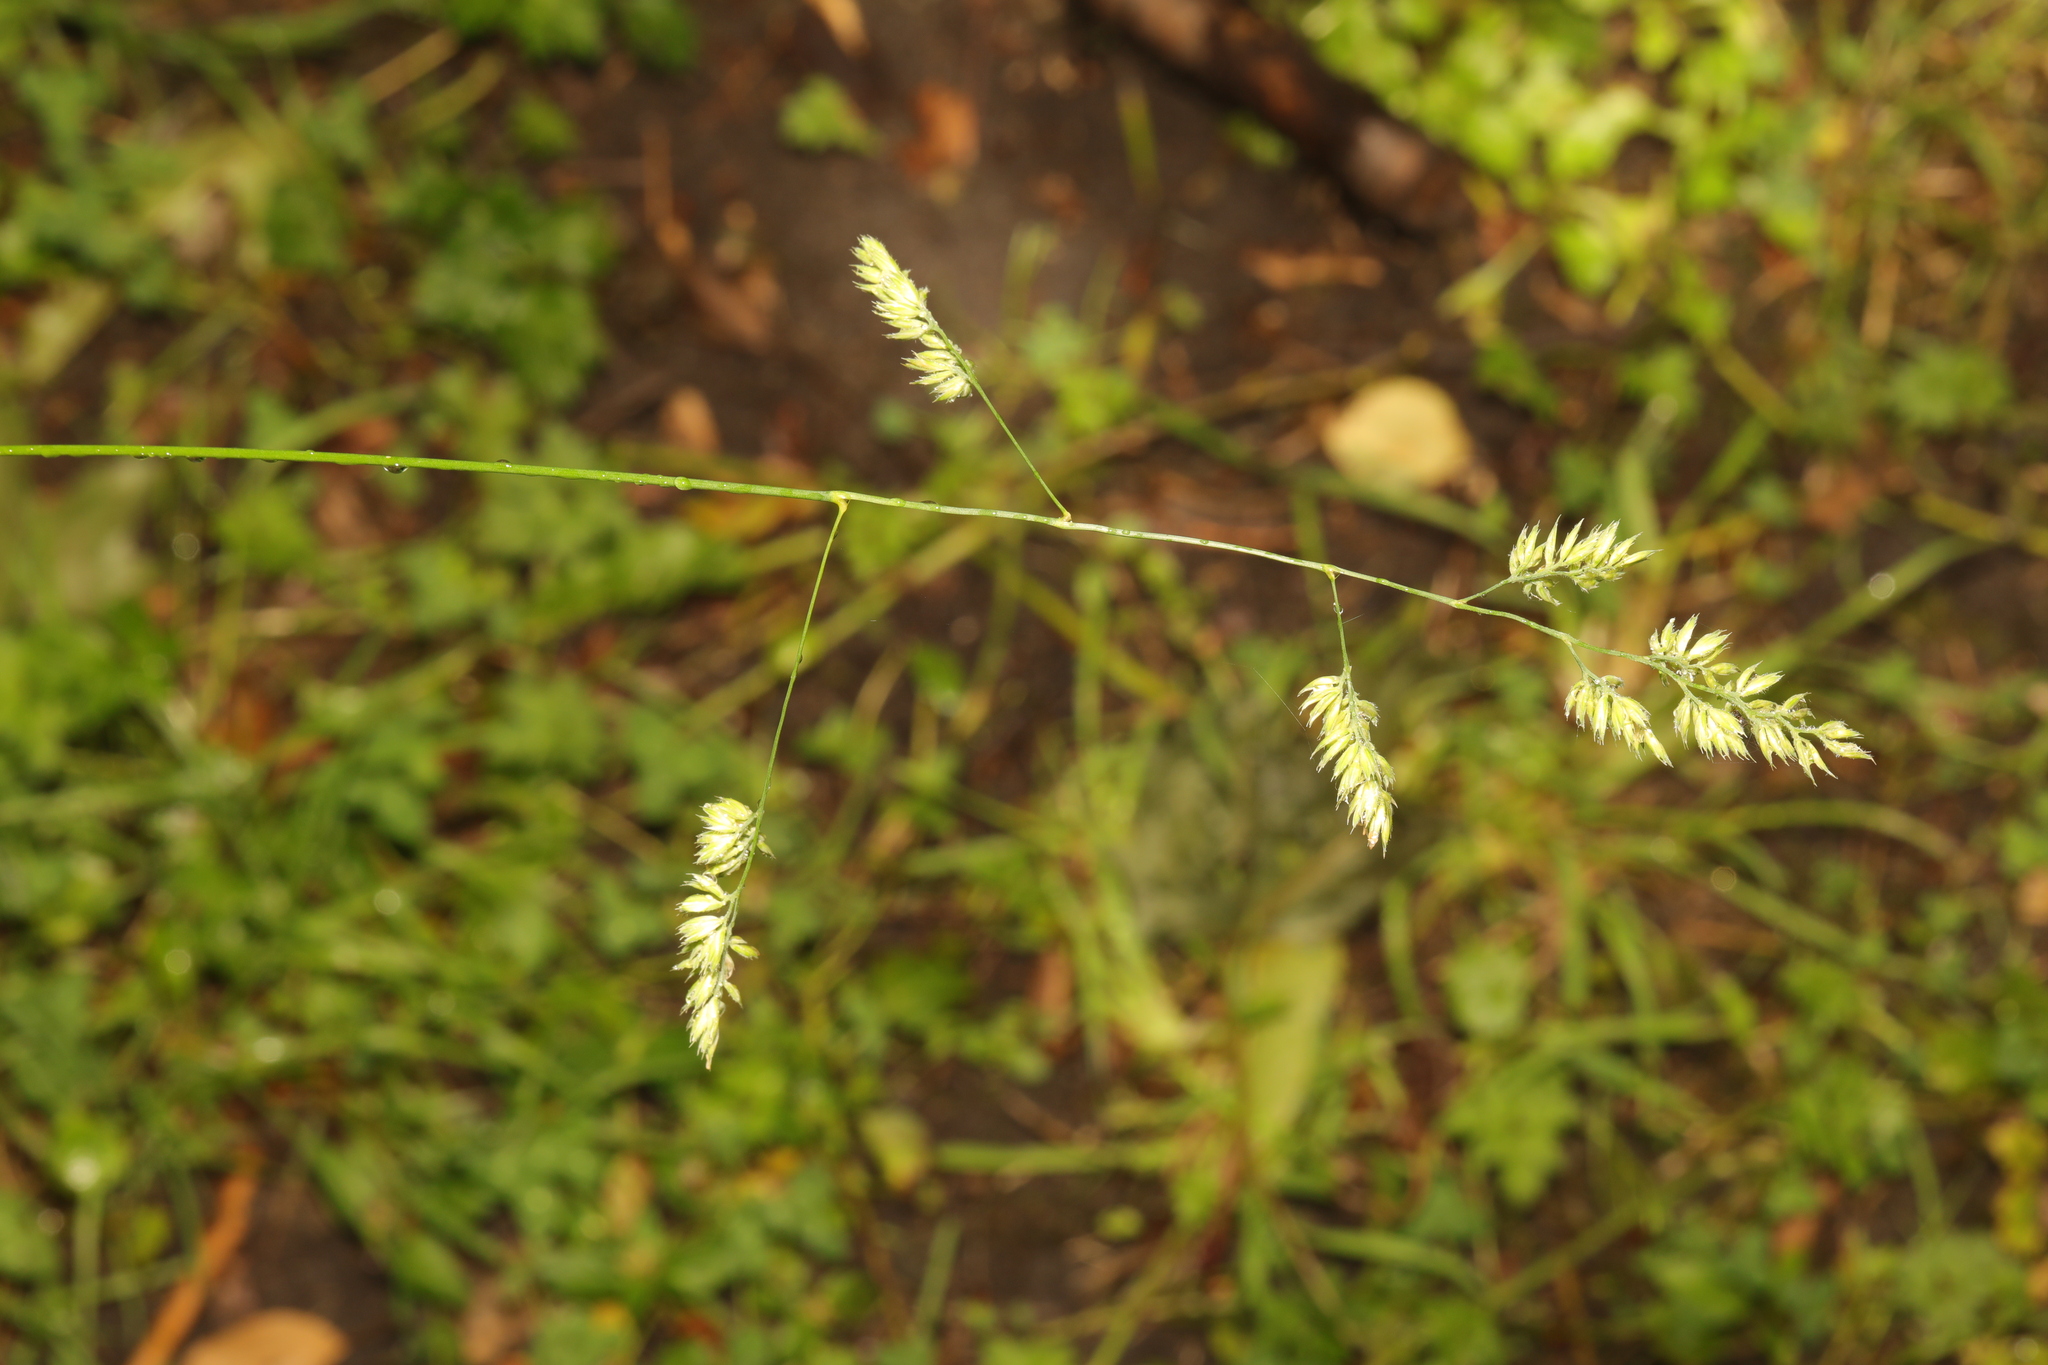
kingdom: Plantae
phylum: Tracheophyta
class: Liliopsida
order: Poales
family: Poaceae
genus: Dactylis
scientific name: Dactylis glomerata
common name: Orchardgrass
